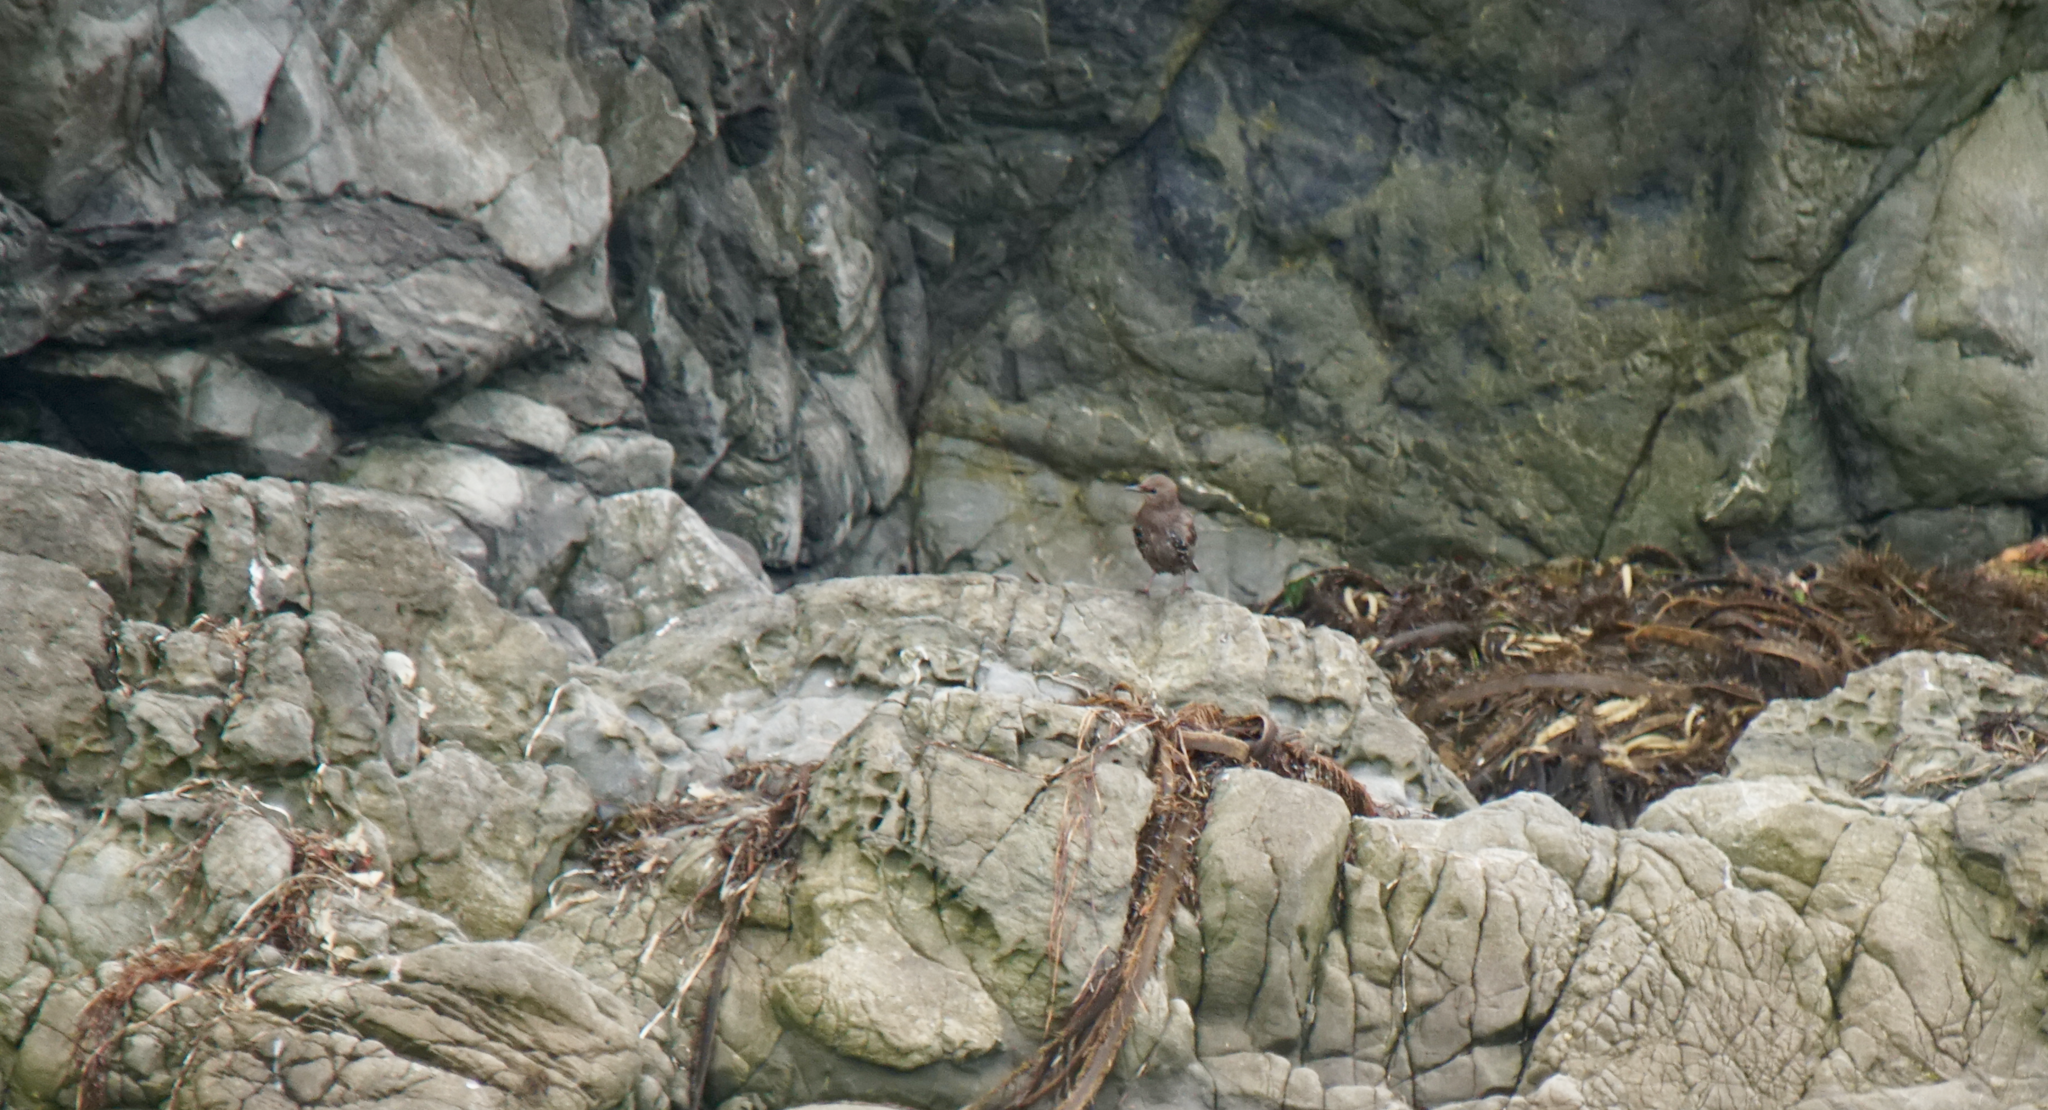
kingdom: Animalia
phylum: Chordata
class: Aves
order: Passeriformes
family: Sturnidae
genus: Sturnus
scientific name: Sturnus vulgaris
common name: Common starling
